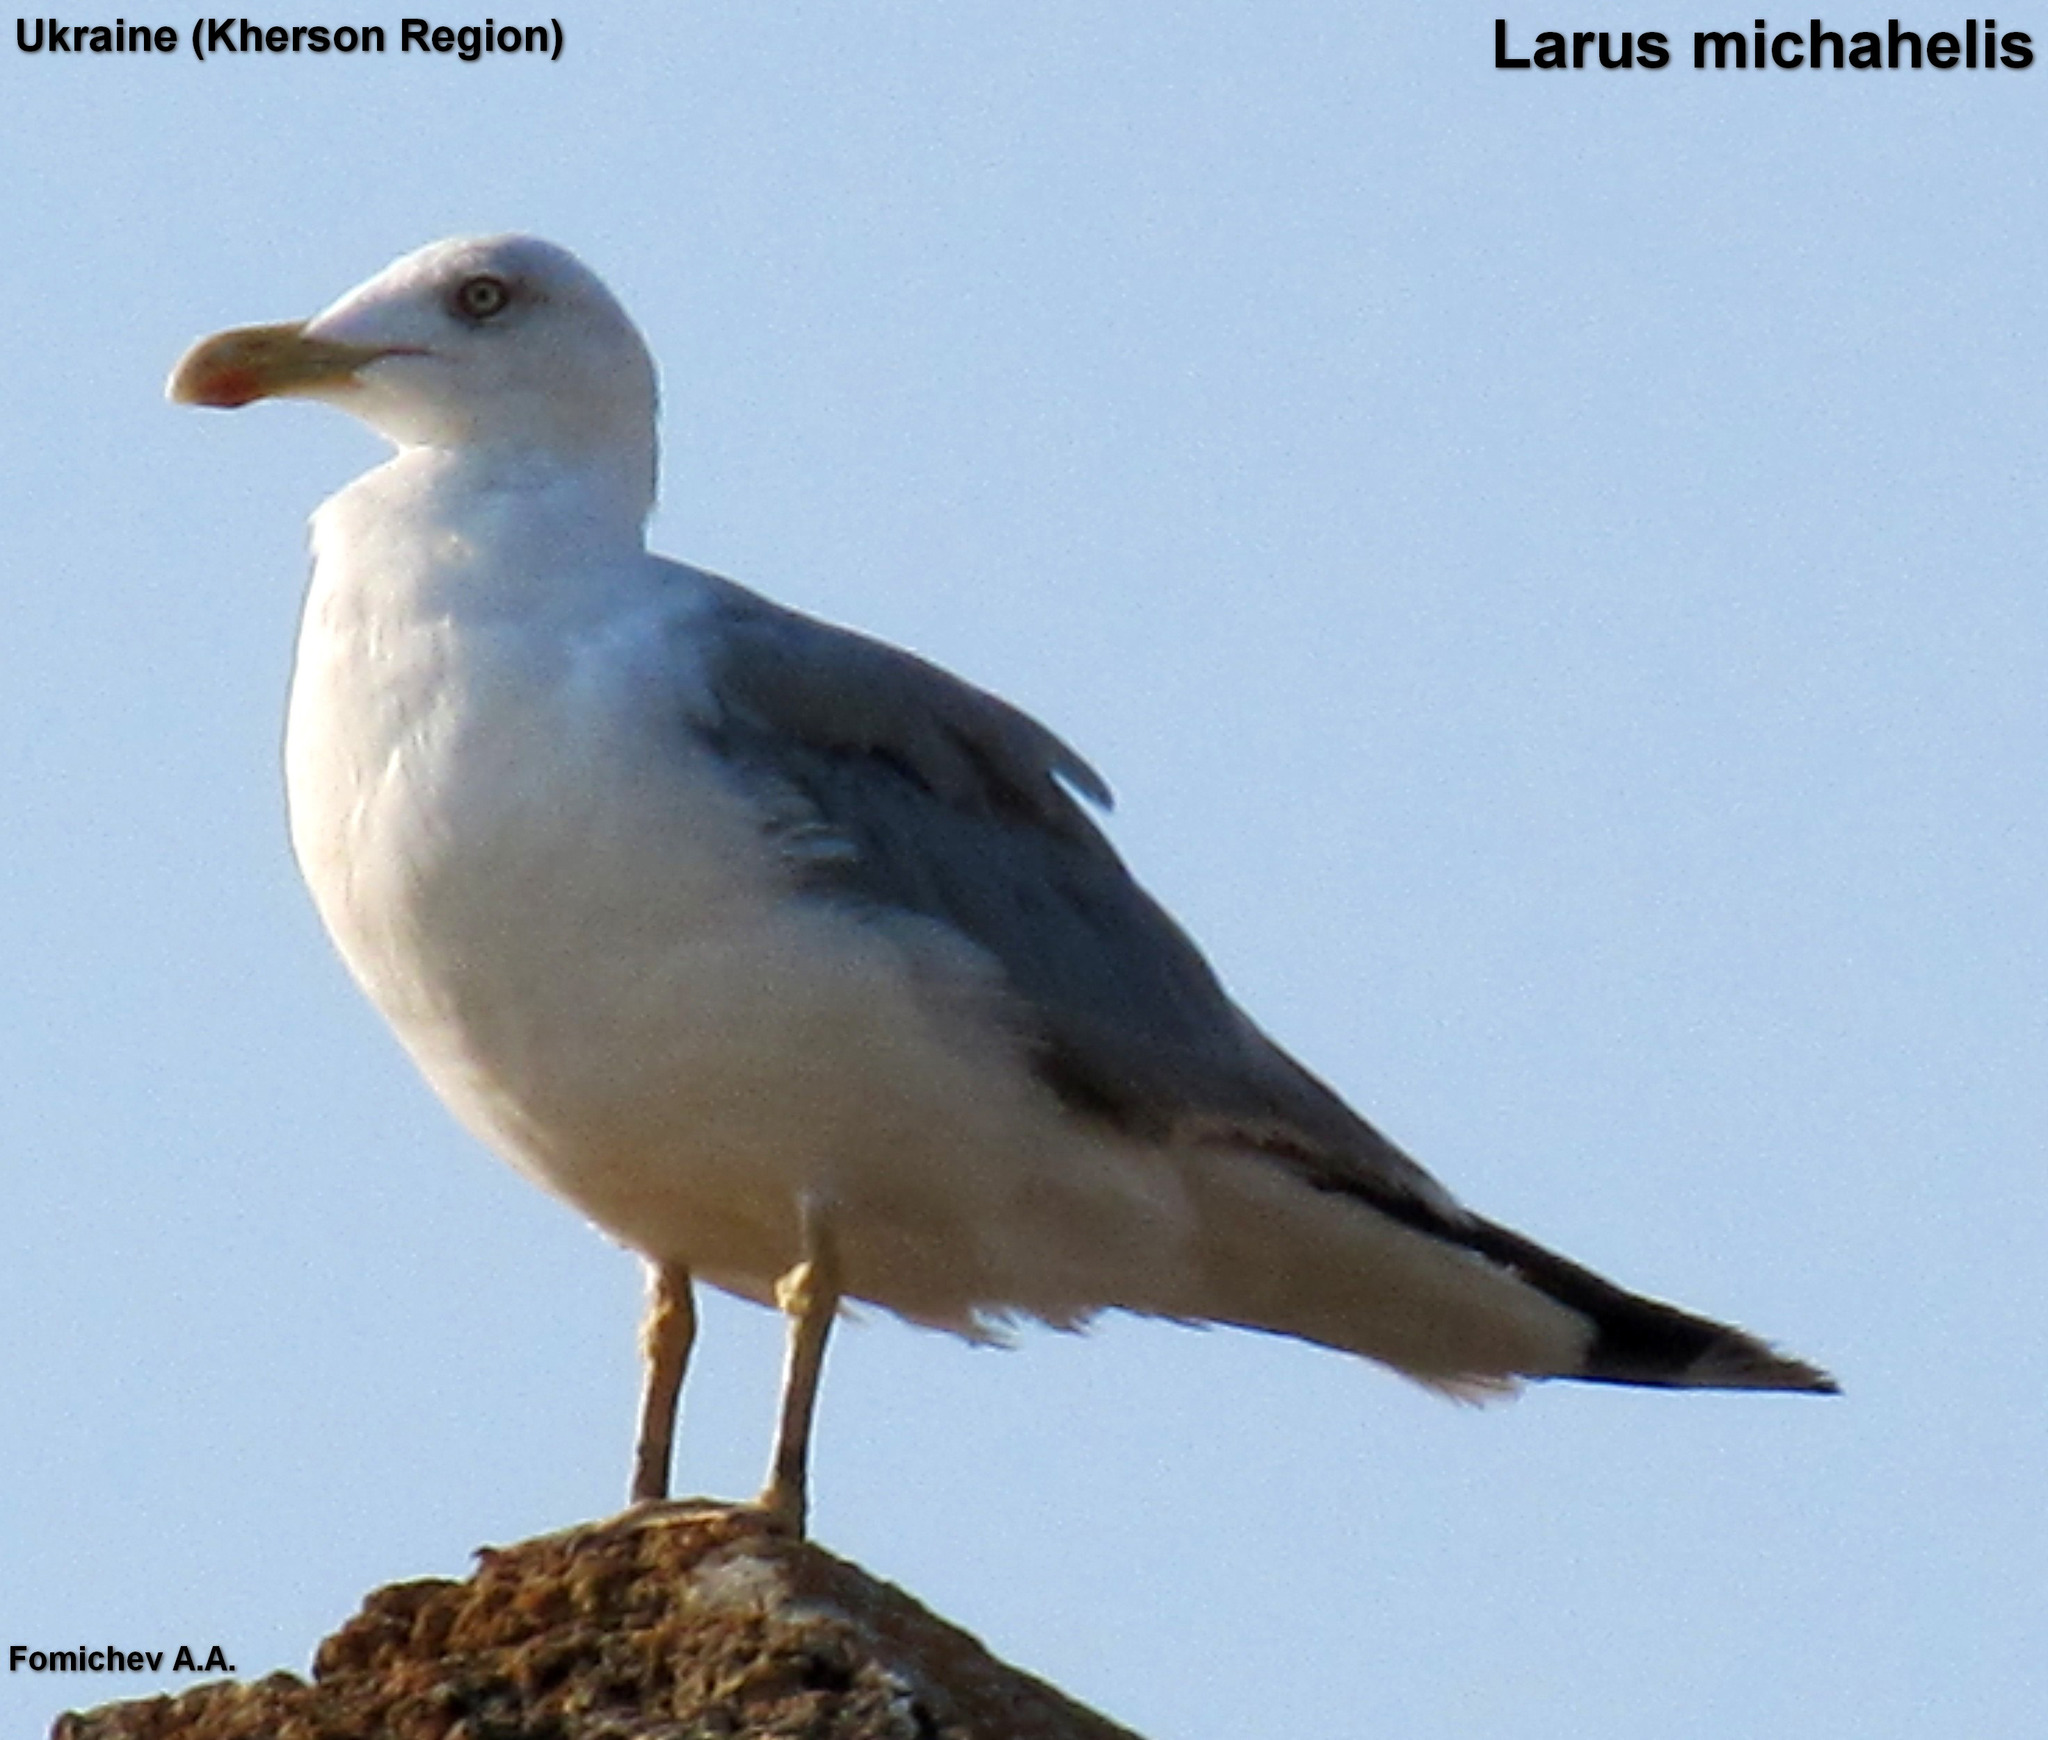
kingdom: Animalia
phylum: Chordata
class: Aves
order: Charadriiformes
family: Laridae
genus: Larus
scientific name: Larus michahellis
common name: Yellow-legged gull
